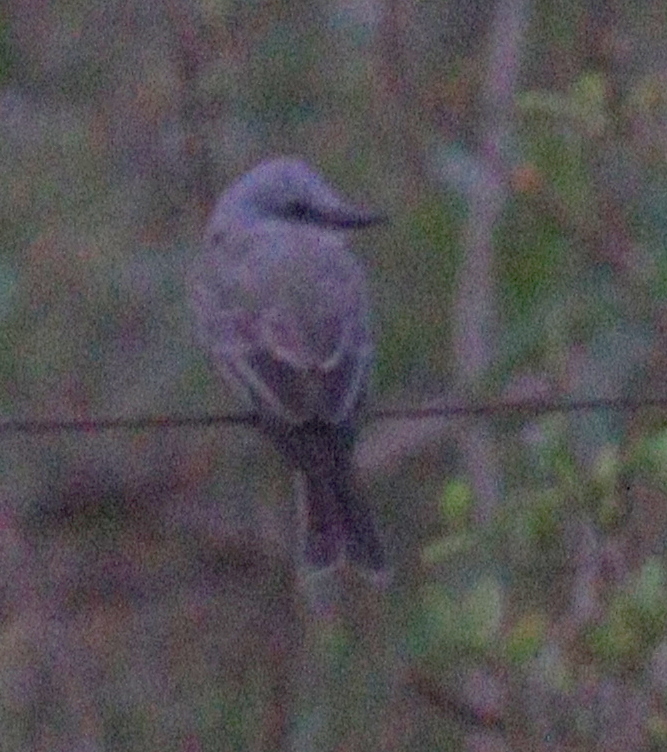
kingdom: Animalia
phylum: Chordata
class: Aves
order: Passeriformes
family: Tyrannidae
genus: Tyrannus
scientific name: Tyrannus melancholicus
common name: Tropical kingbird
